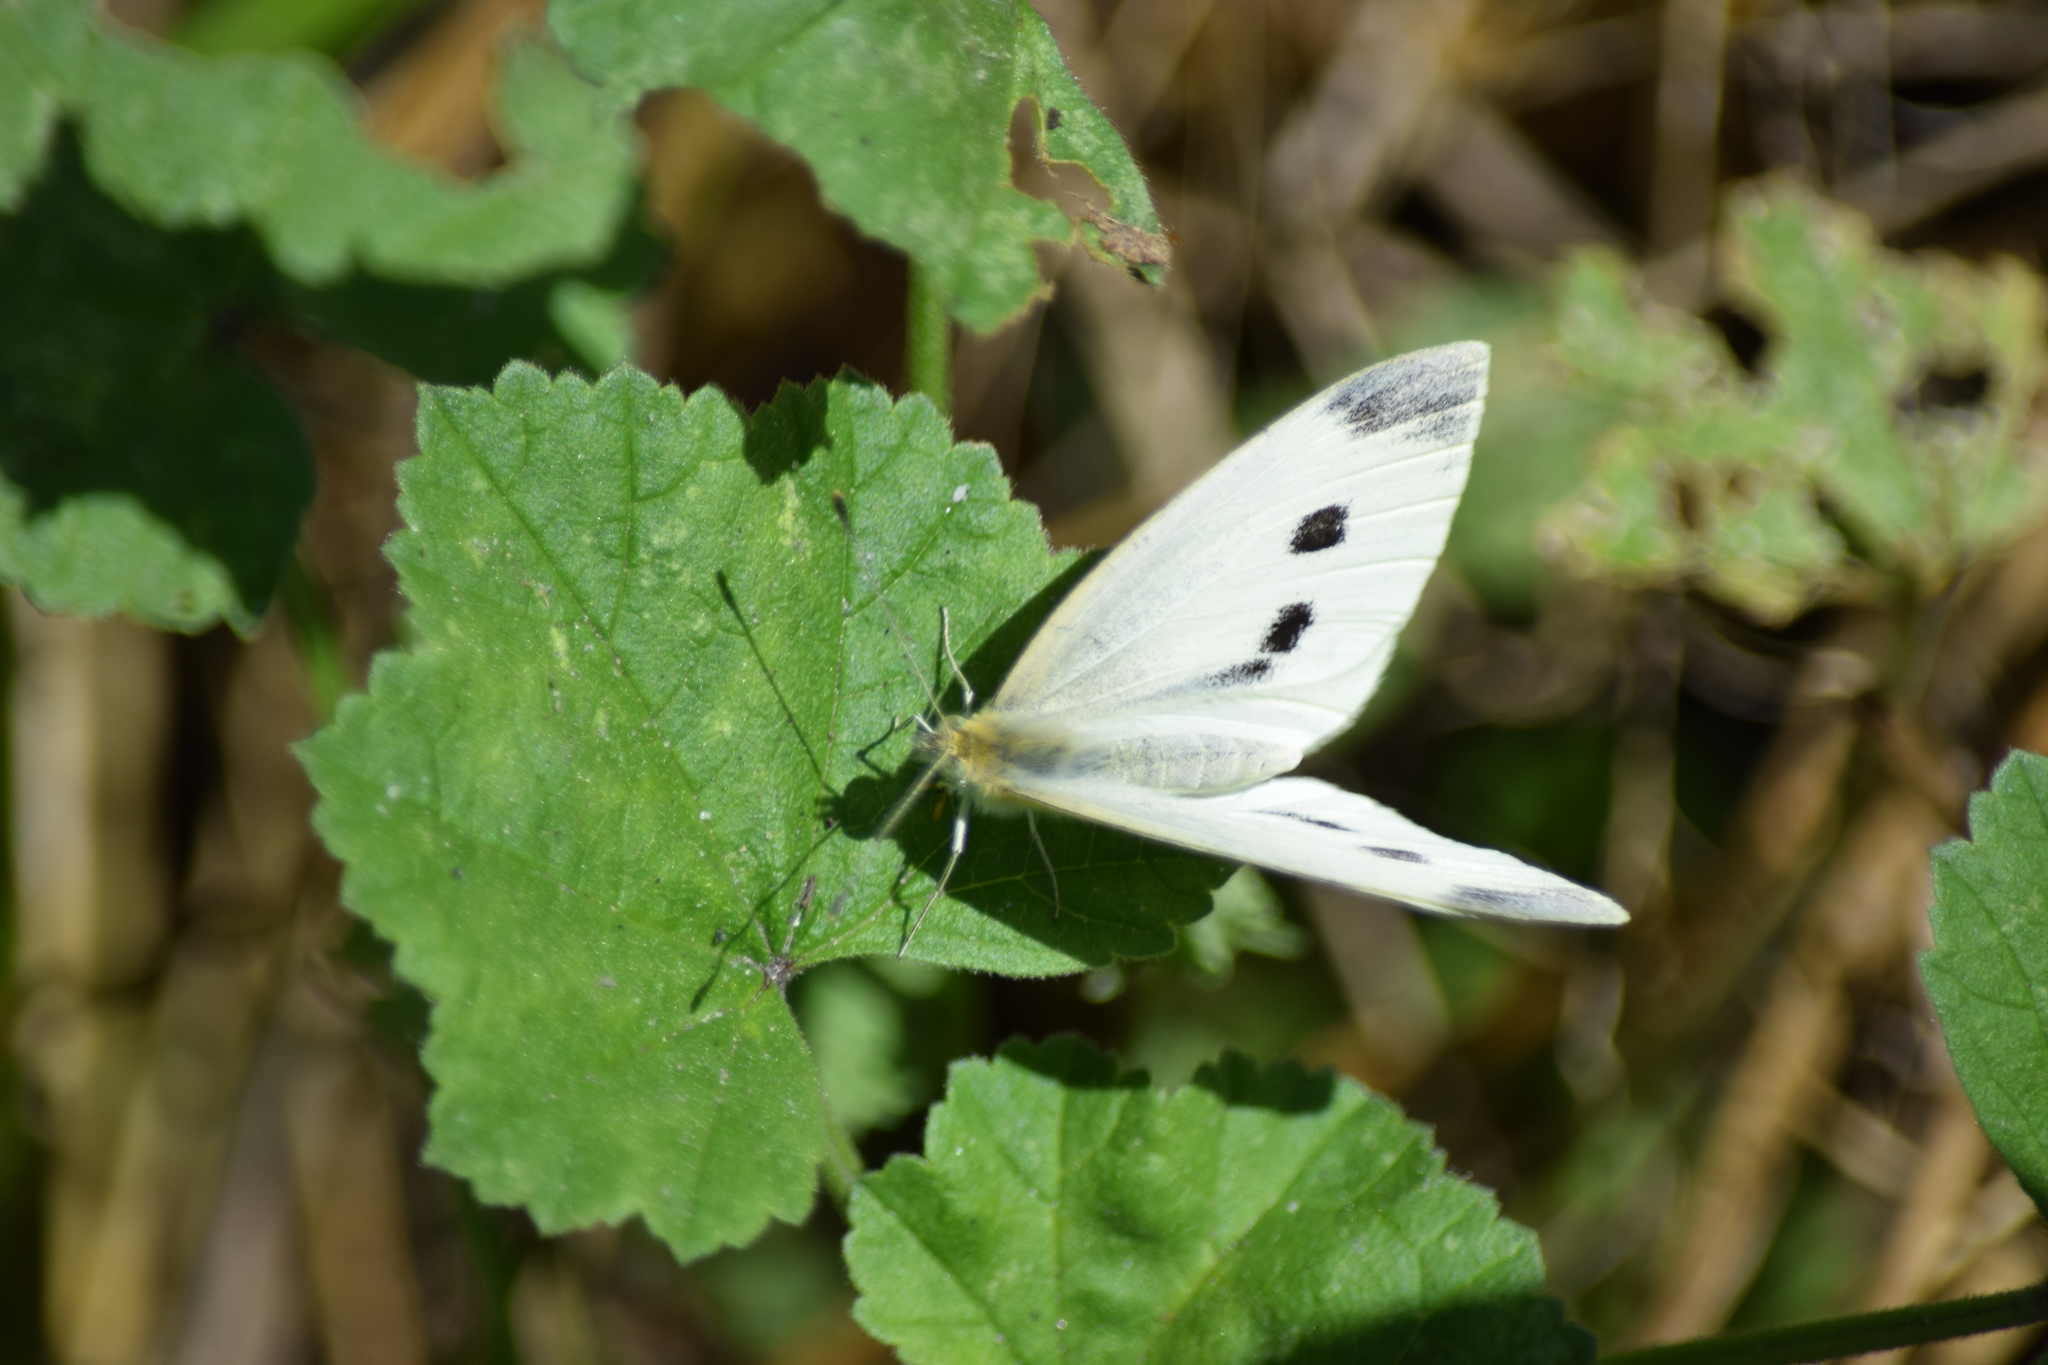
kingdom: Animalia
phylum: Arthropoda
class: Insecta
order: Lepidoptera
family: Pieridae
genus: Pieris
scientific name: Pieris rapae
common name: Small white
